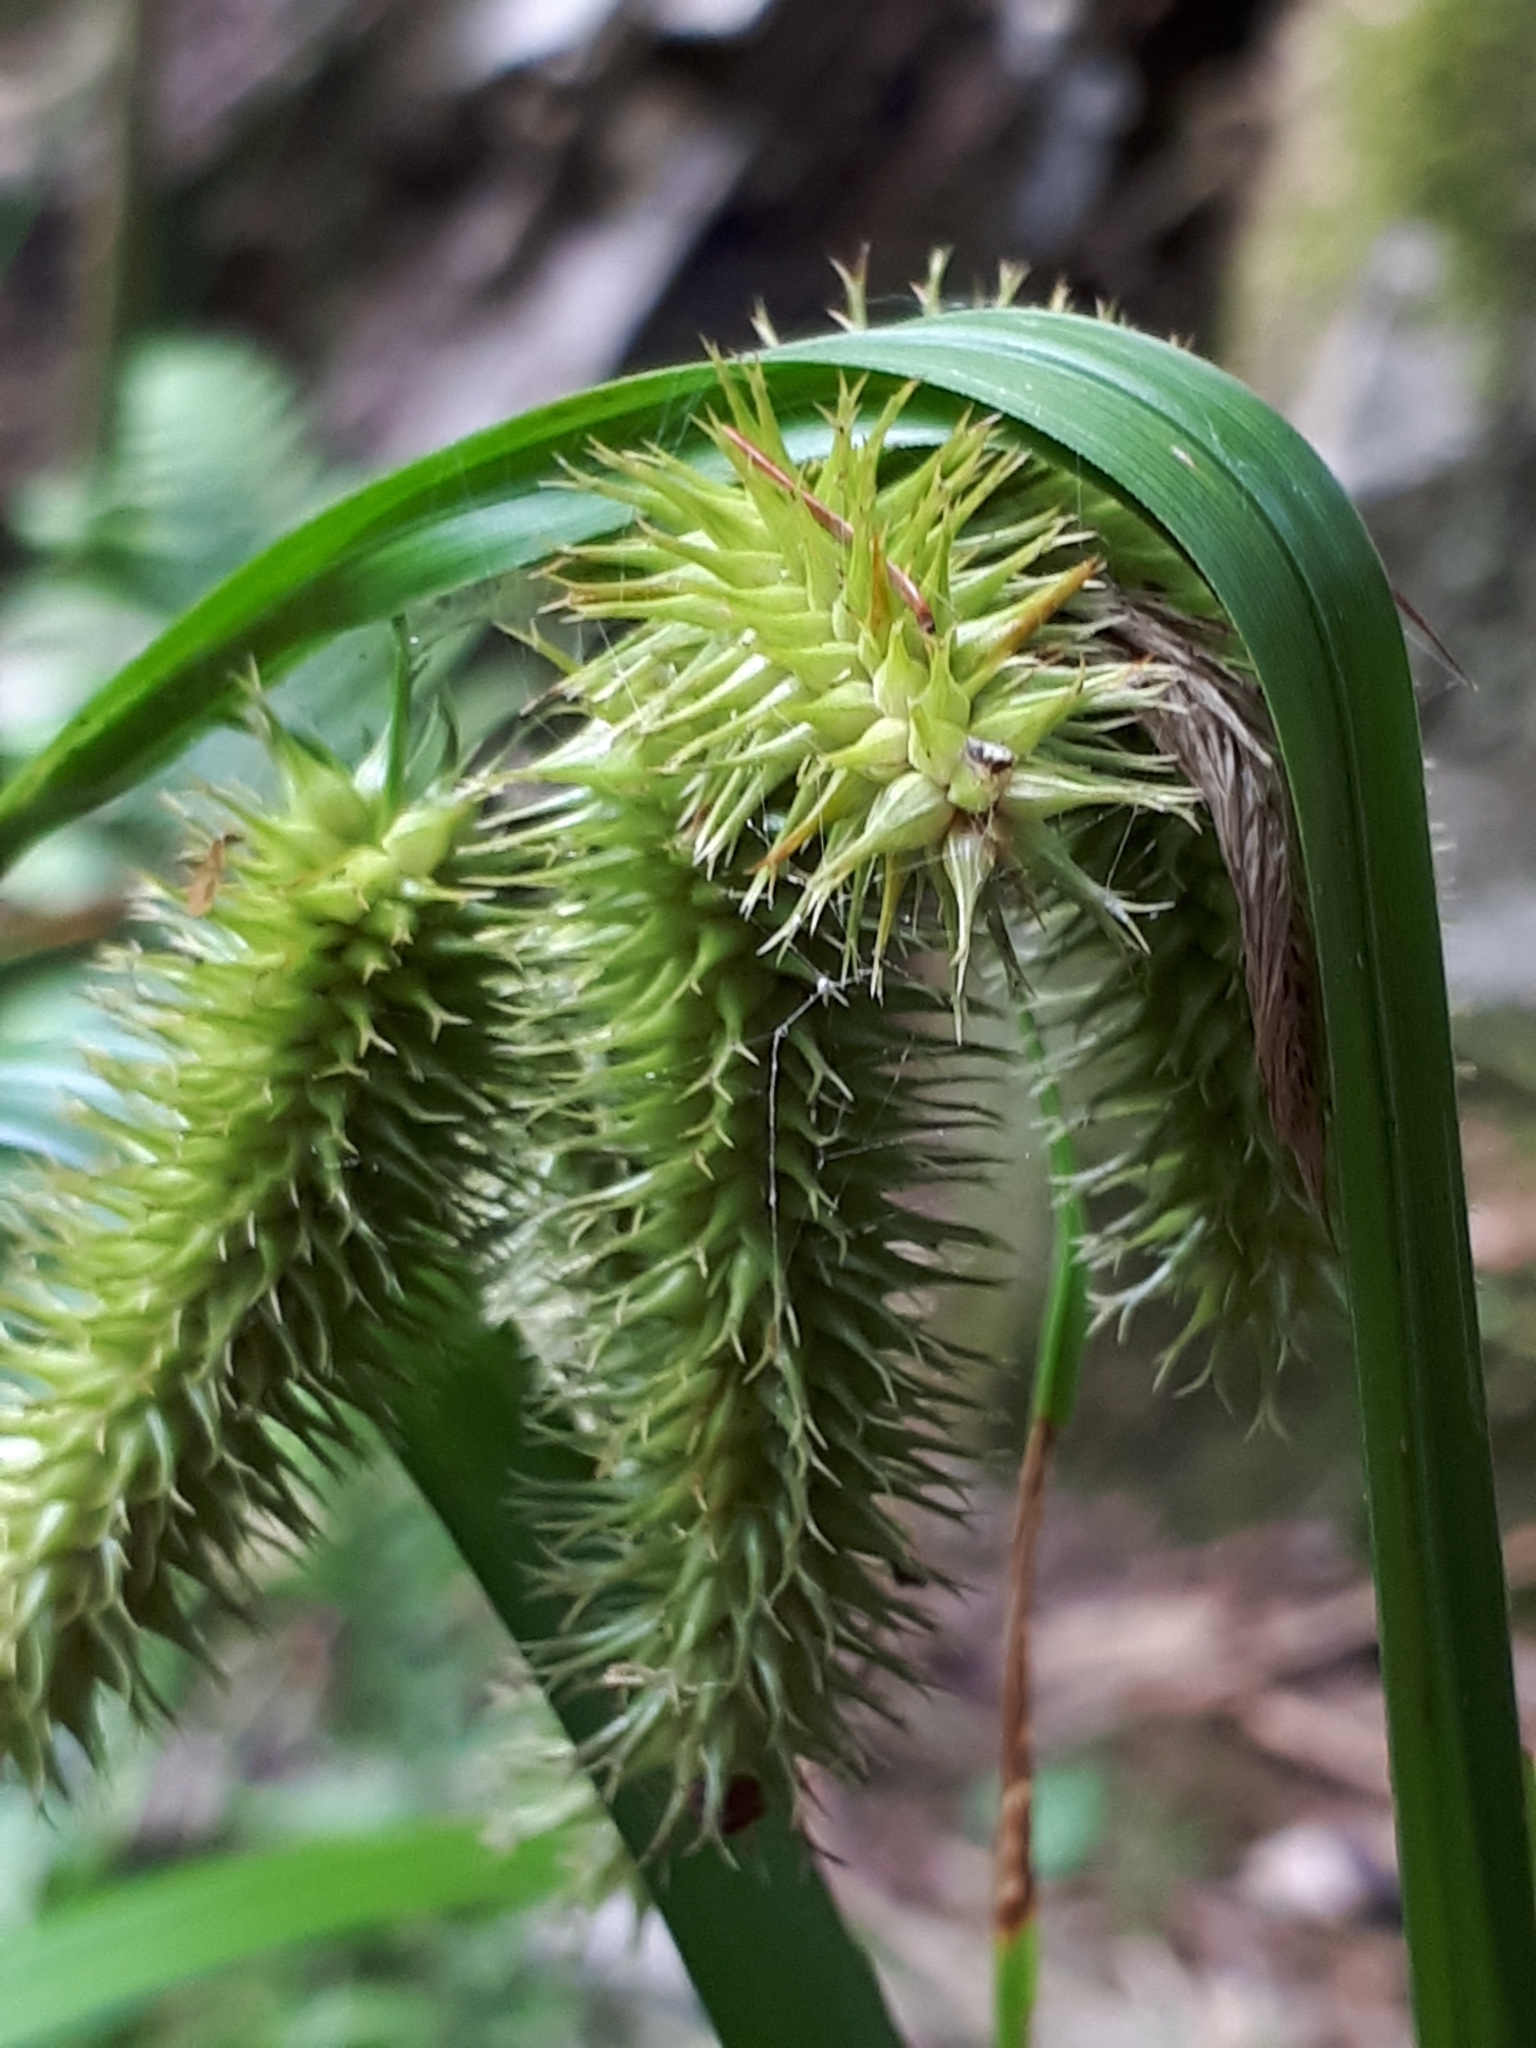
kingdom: Plantae
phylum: Tracheophyta
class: Liliopsida
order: Poales
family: Cyperaceae
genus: Carex
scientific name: Carex pseudocyperus
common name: Cyperus sedge
